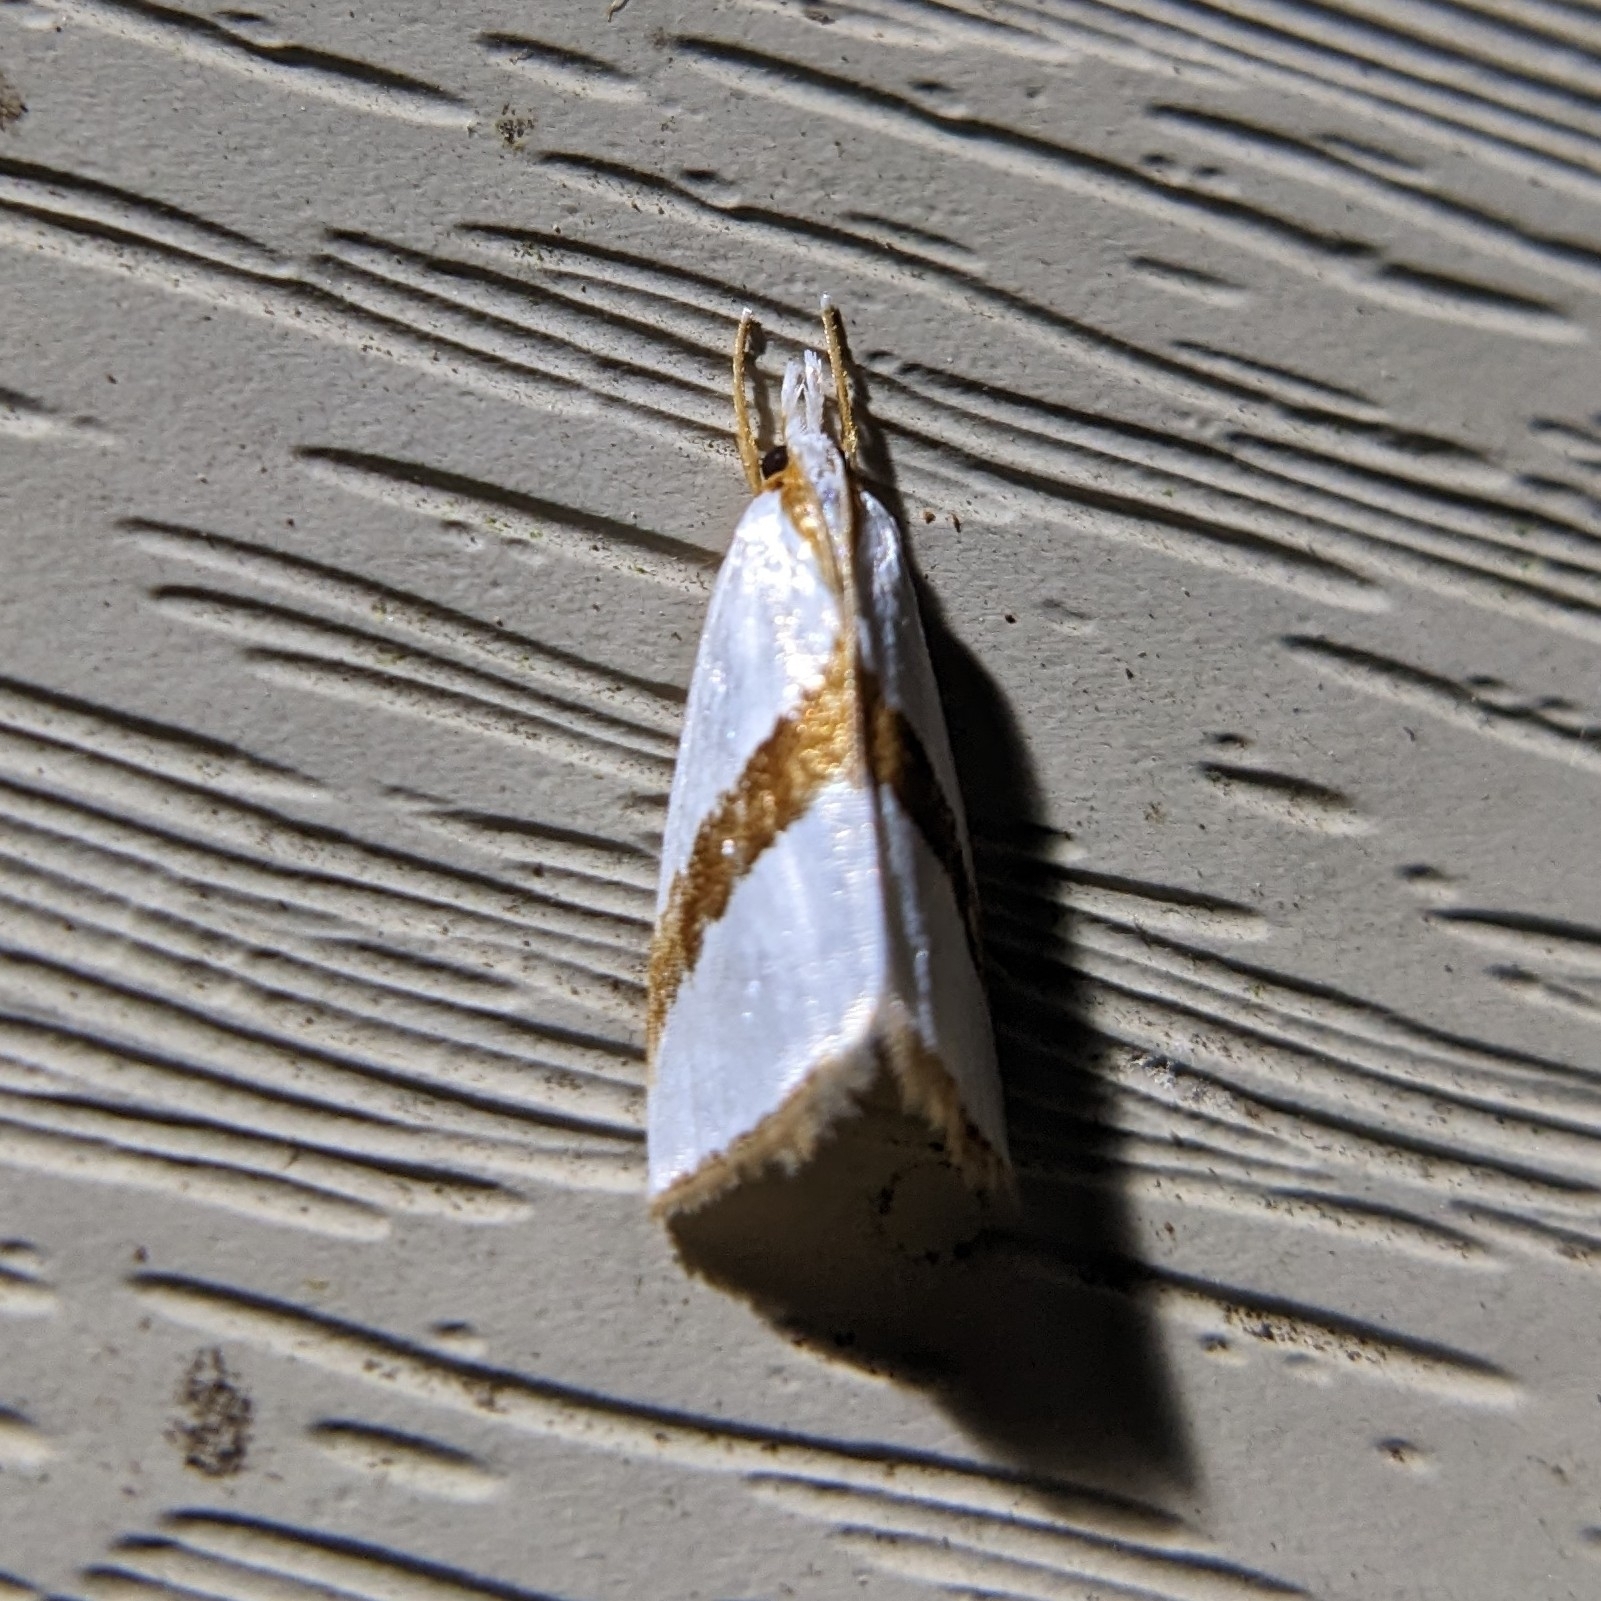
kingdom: Animalia
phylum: Arthropoda
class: Insecta
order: Lepidoptera
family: Crambidae
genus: Vaxi
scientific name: Vaxi critica
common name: Straight-lined vaxi moth
